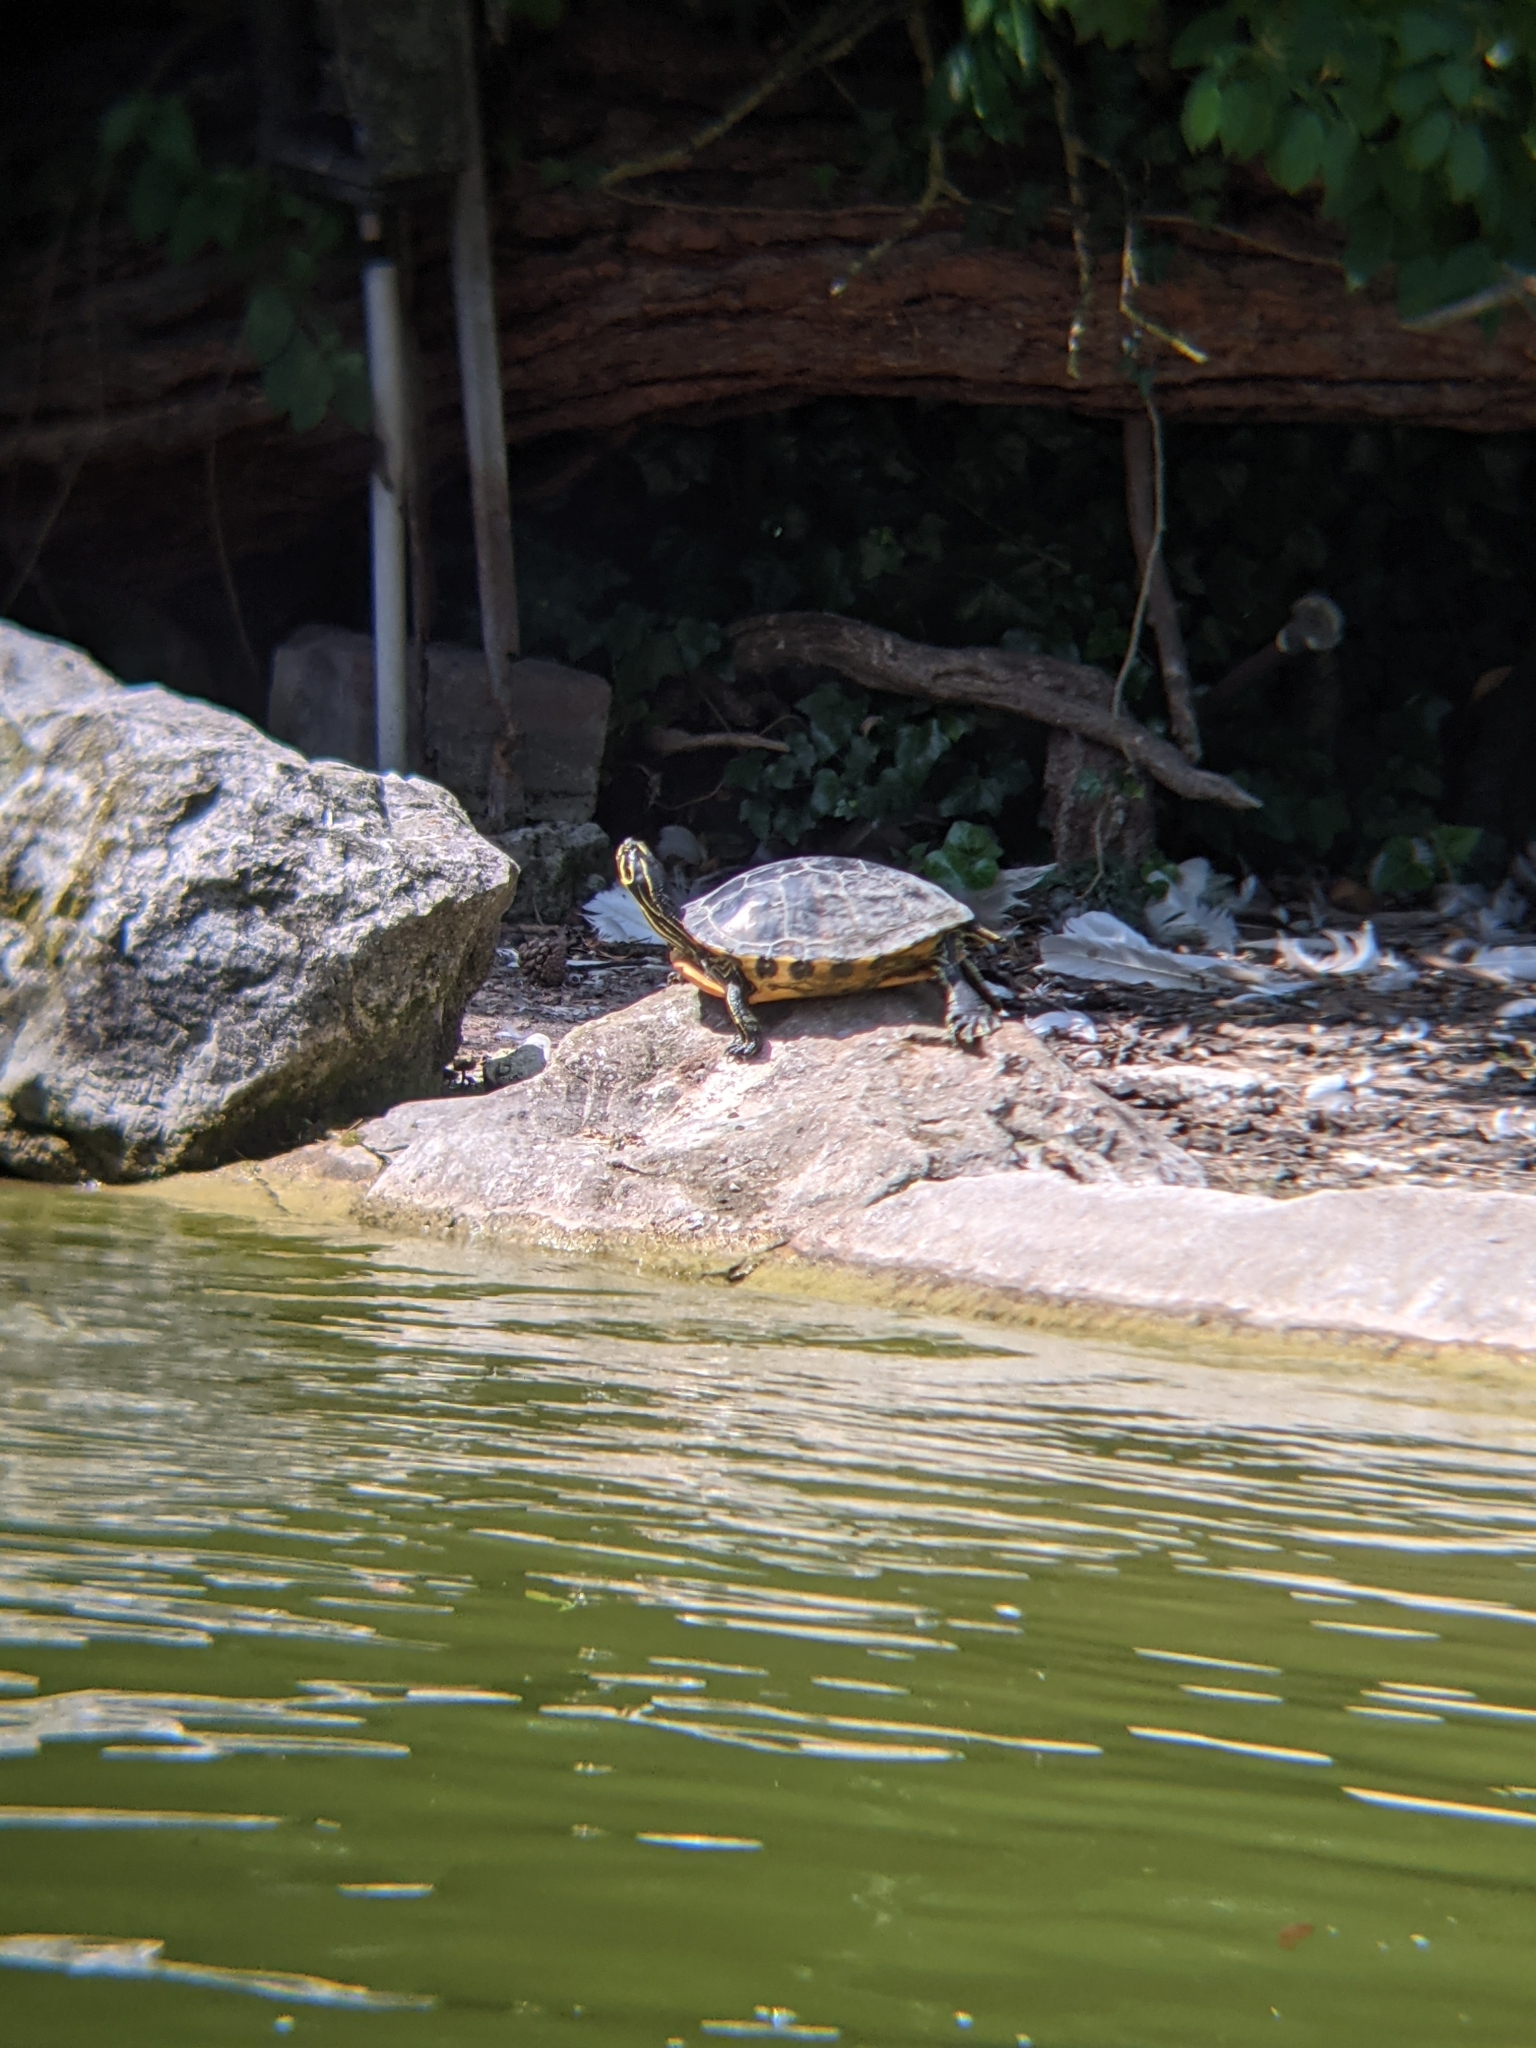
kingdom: Animalia
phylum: Chordata
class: Testudines
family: Emydidae
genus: Pseudemys
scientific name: Pseudemys nelsoni
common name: Florida red-bellied turtle
